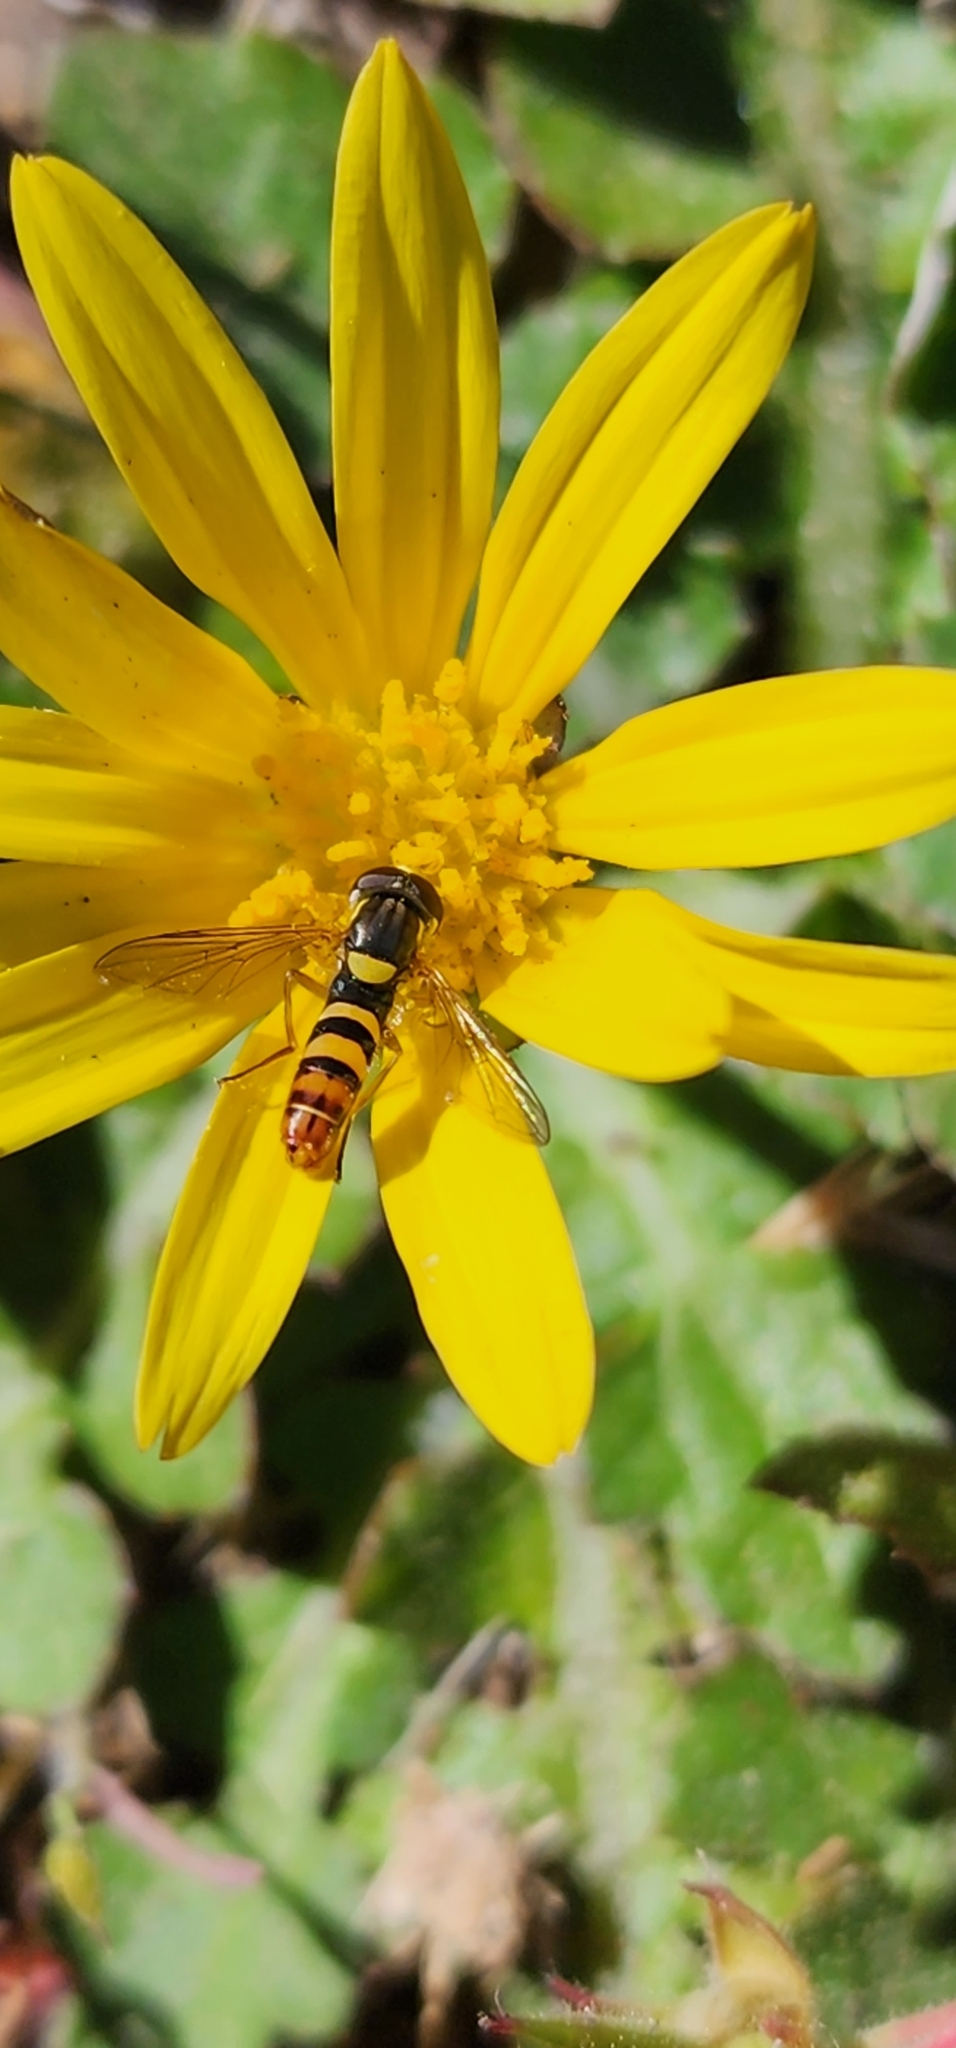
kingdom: Animalia
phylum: Arthropoda
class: Insecta
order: Diptera
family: Syrphidae
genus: Sphaerophoria
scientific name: Sphaerophoria sulphuripes
